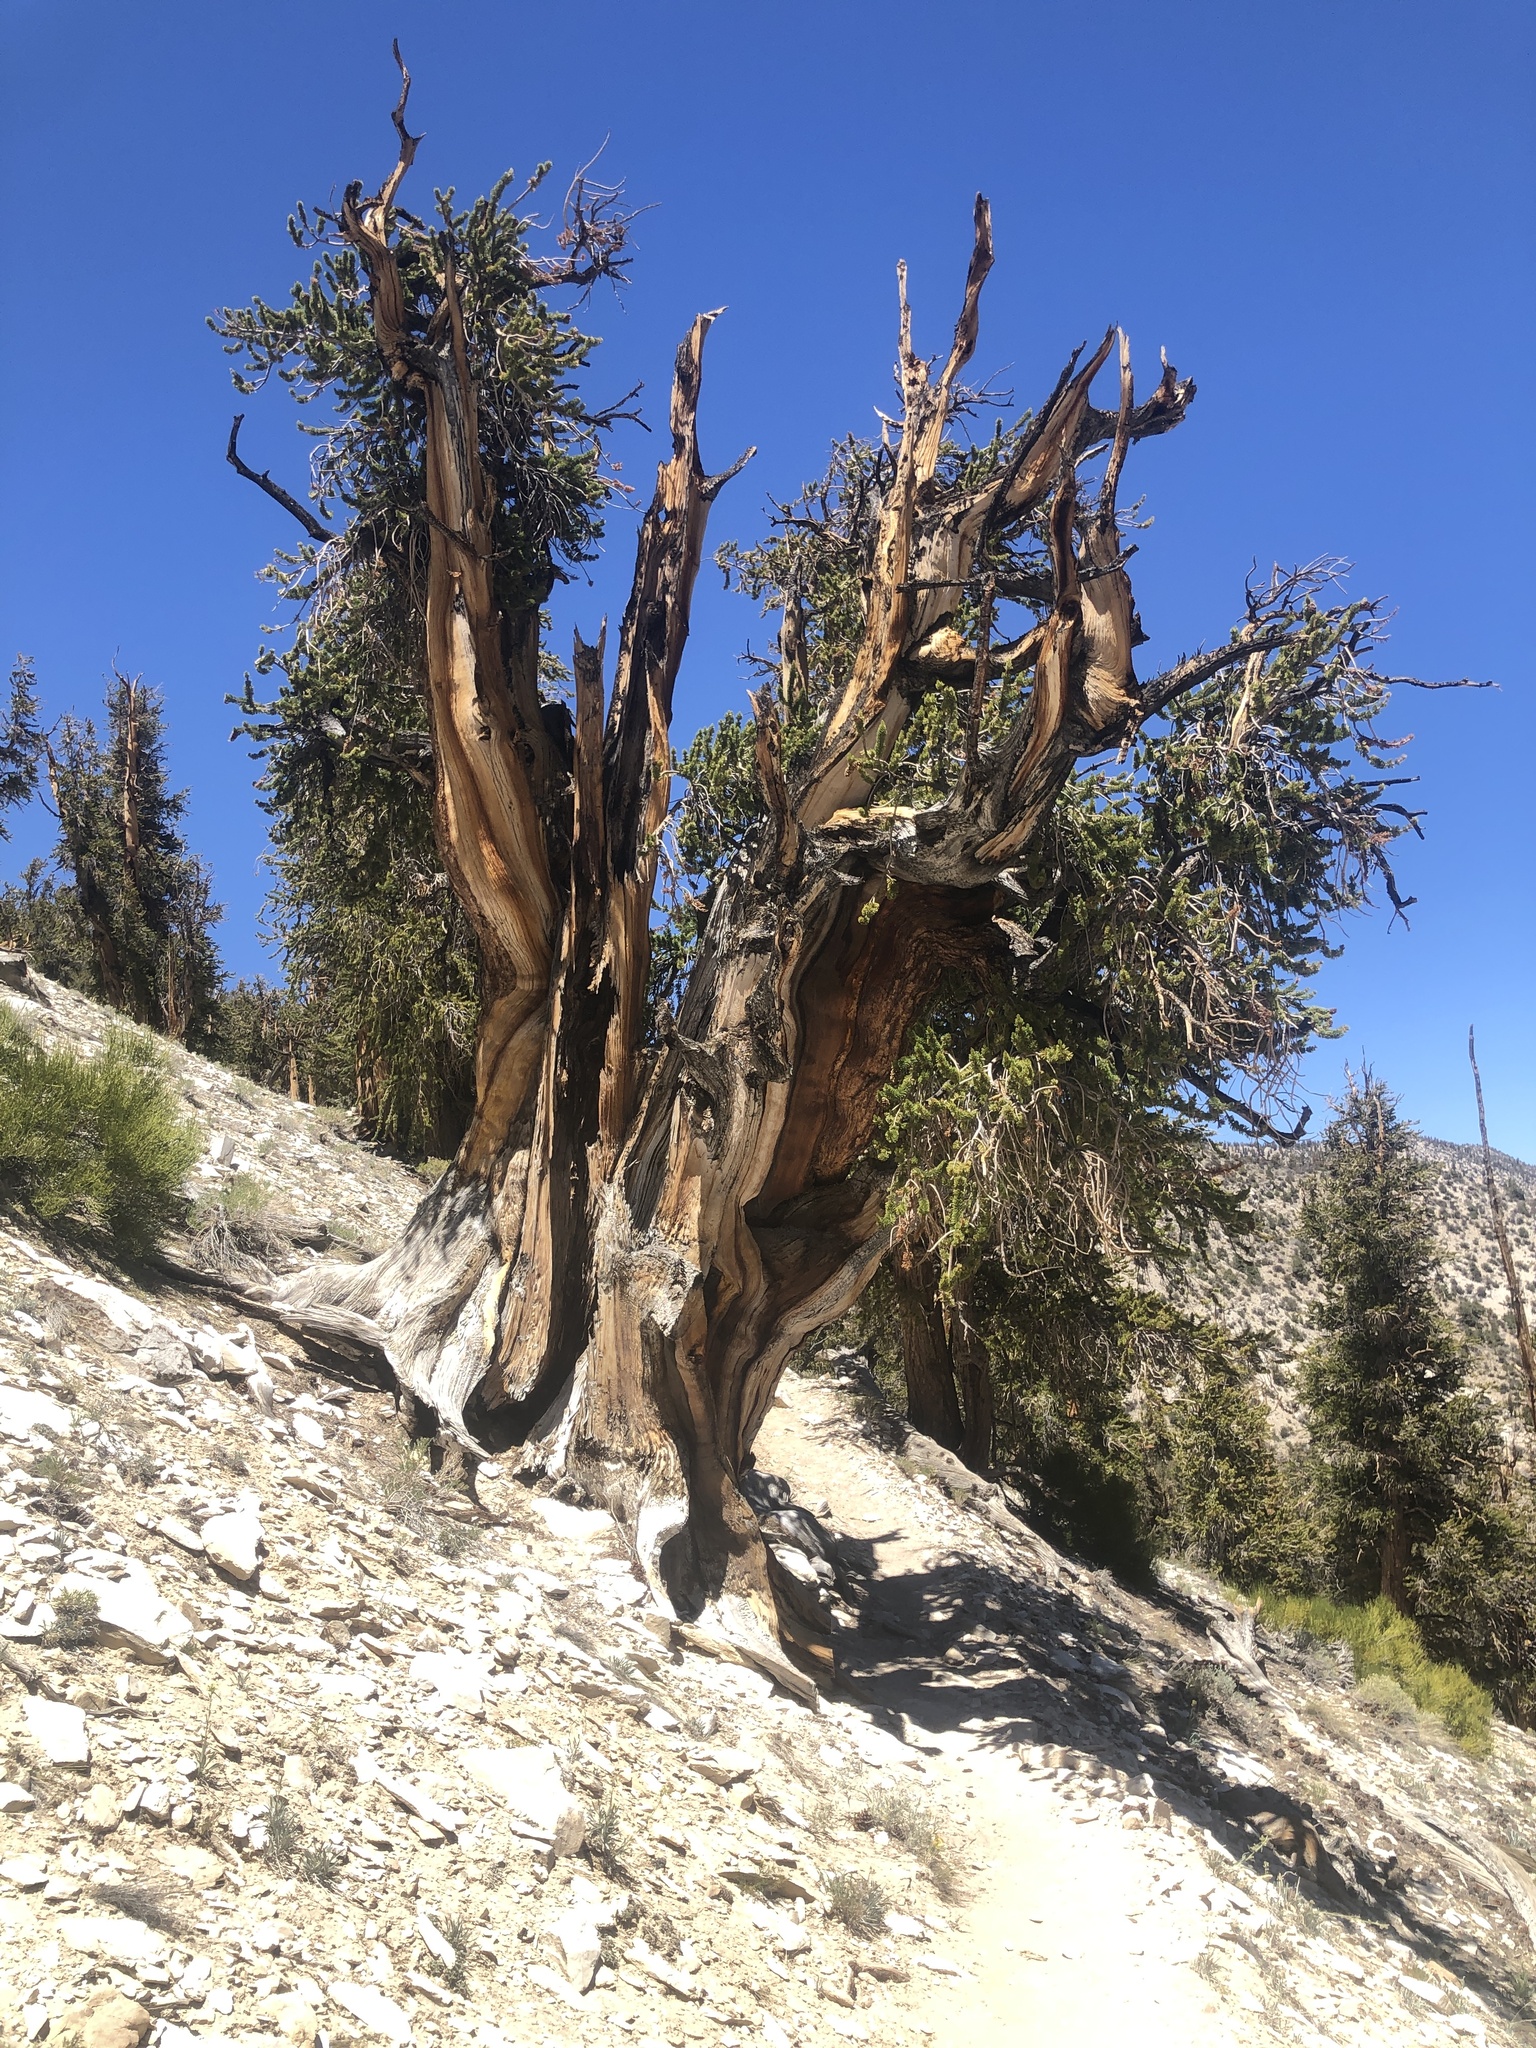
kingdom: Plantae
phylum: Tracheophyta
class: Pinopsida
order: Pinales
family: Pinaceae
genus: Pinus
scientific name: Pinus longaeva
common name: Intermountain bristlecone pine
